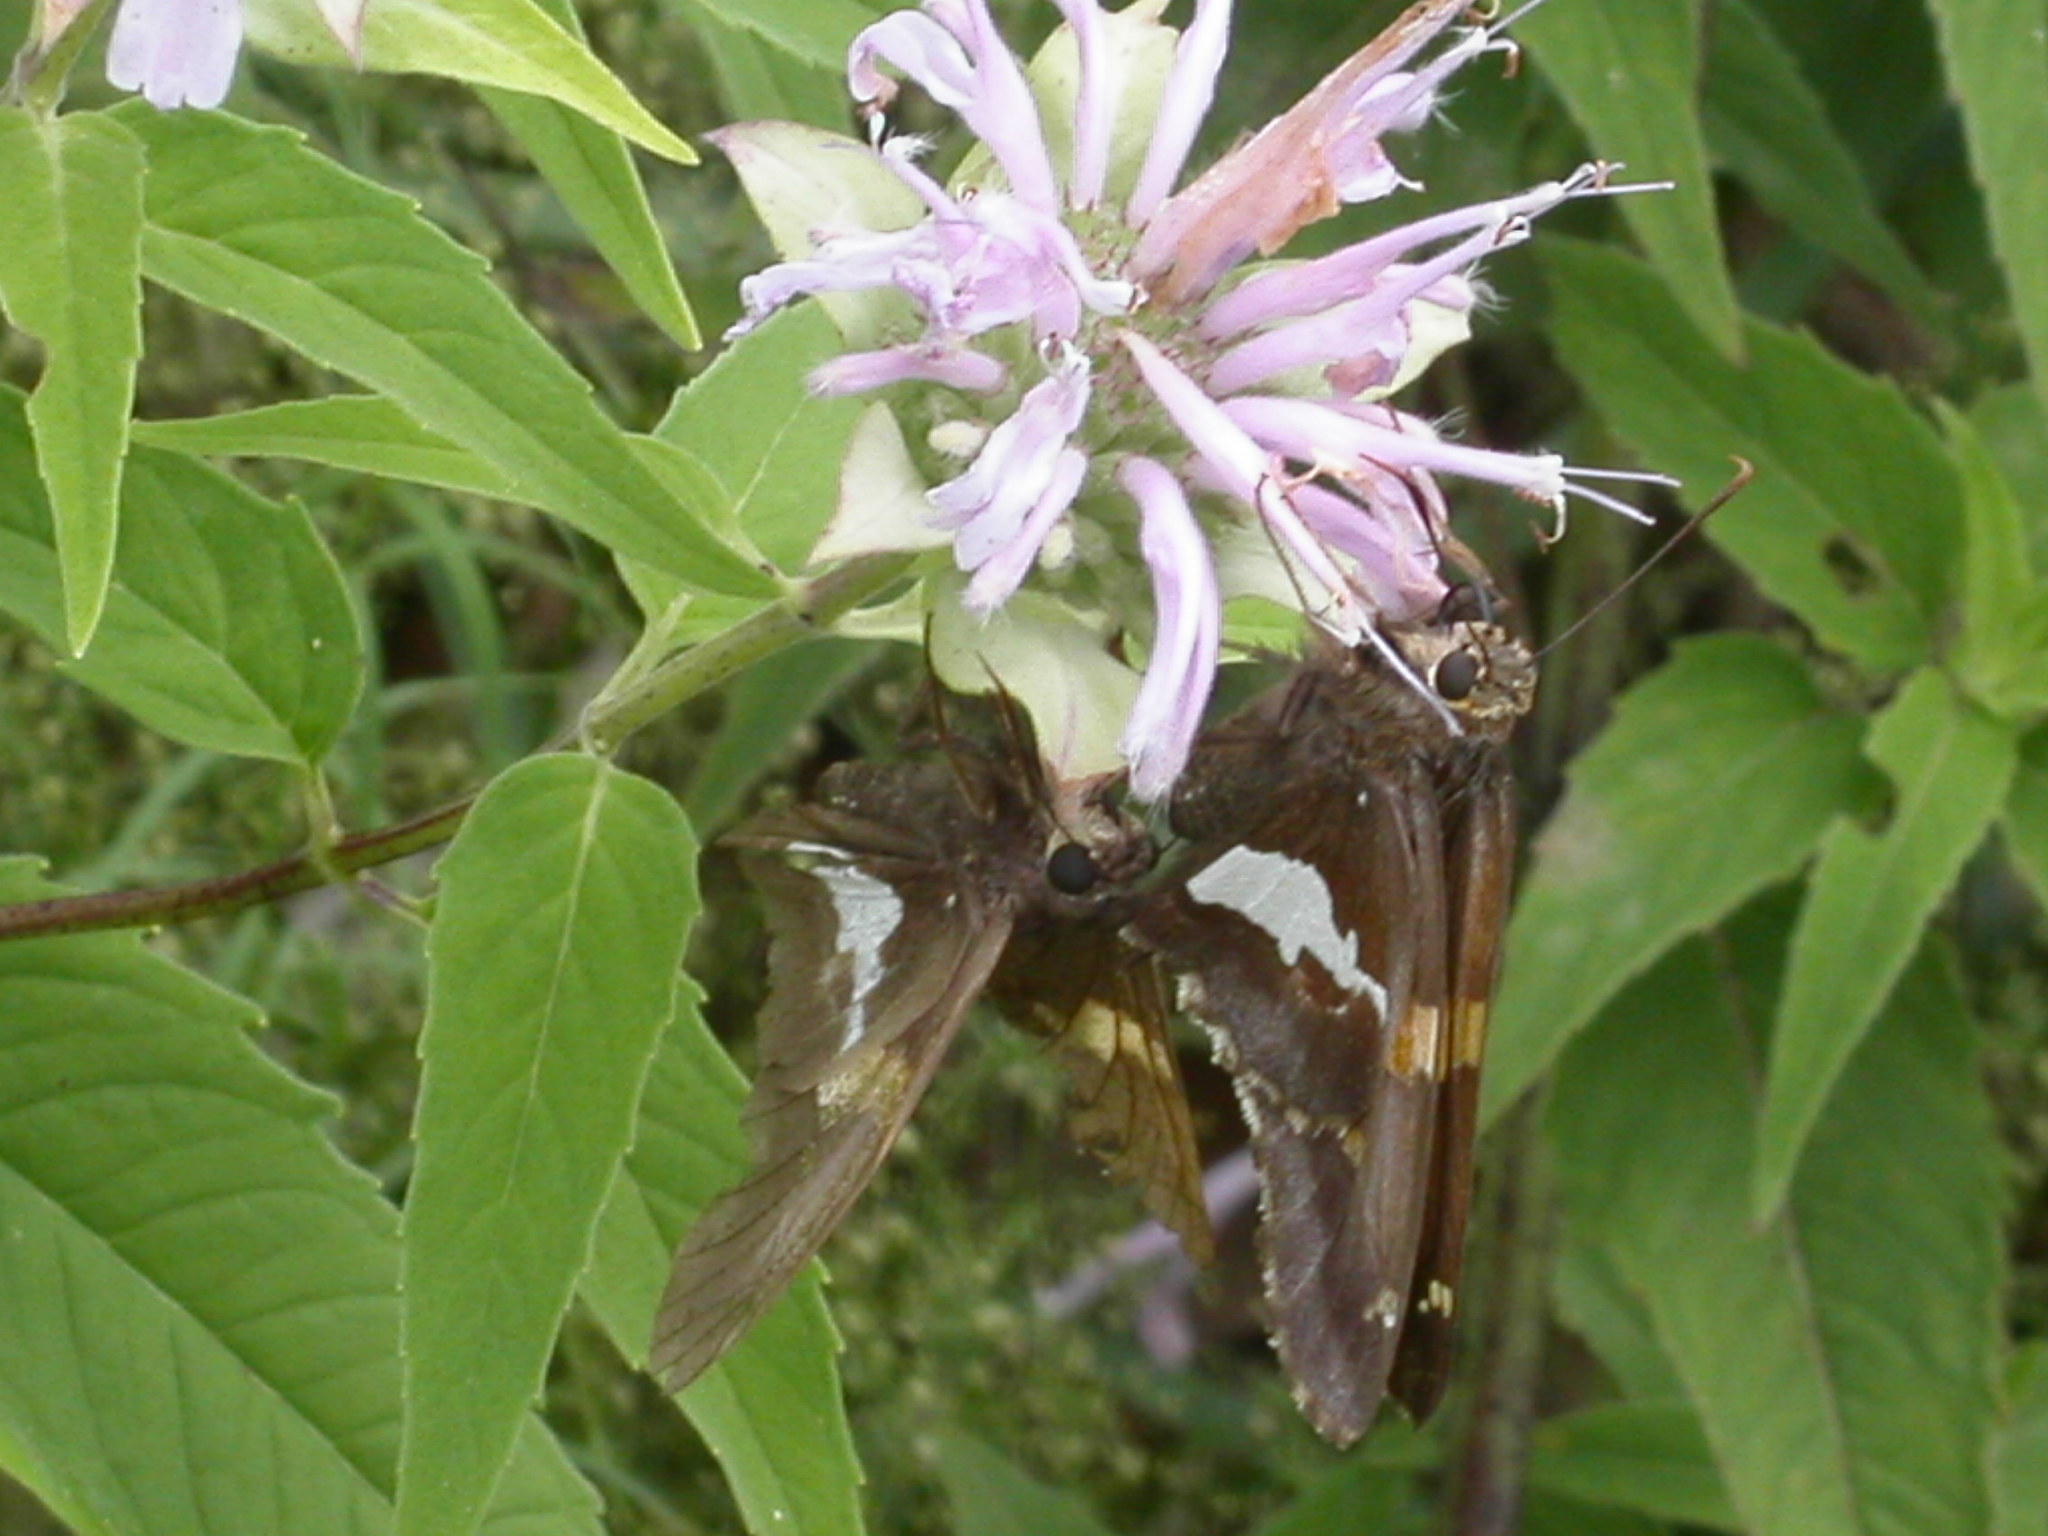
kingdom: Animalia
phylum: Arthropoda
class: Insecta
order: Lepidoptera
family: Hesperiidae
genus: Epargyreus
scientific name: Epargyreus clarus
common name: Silver-spotted skipper
